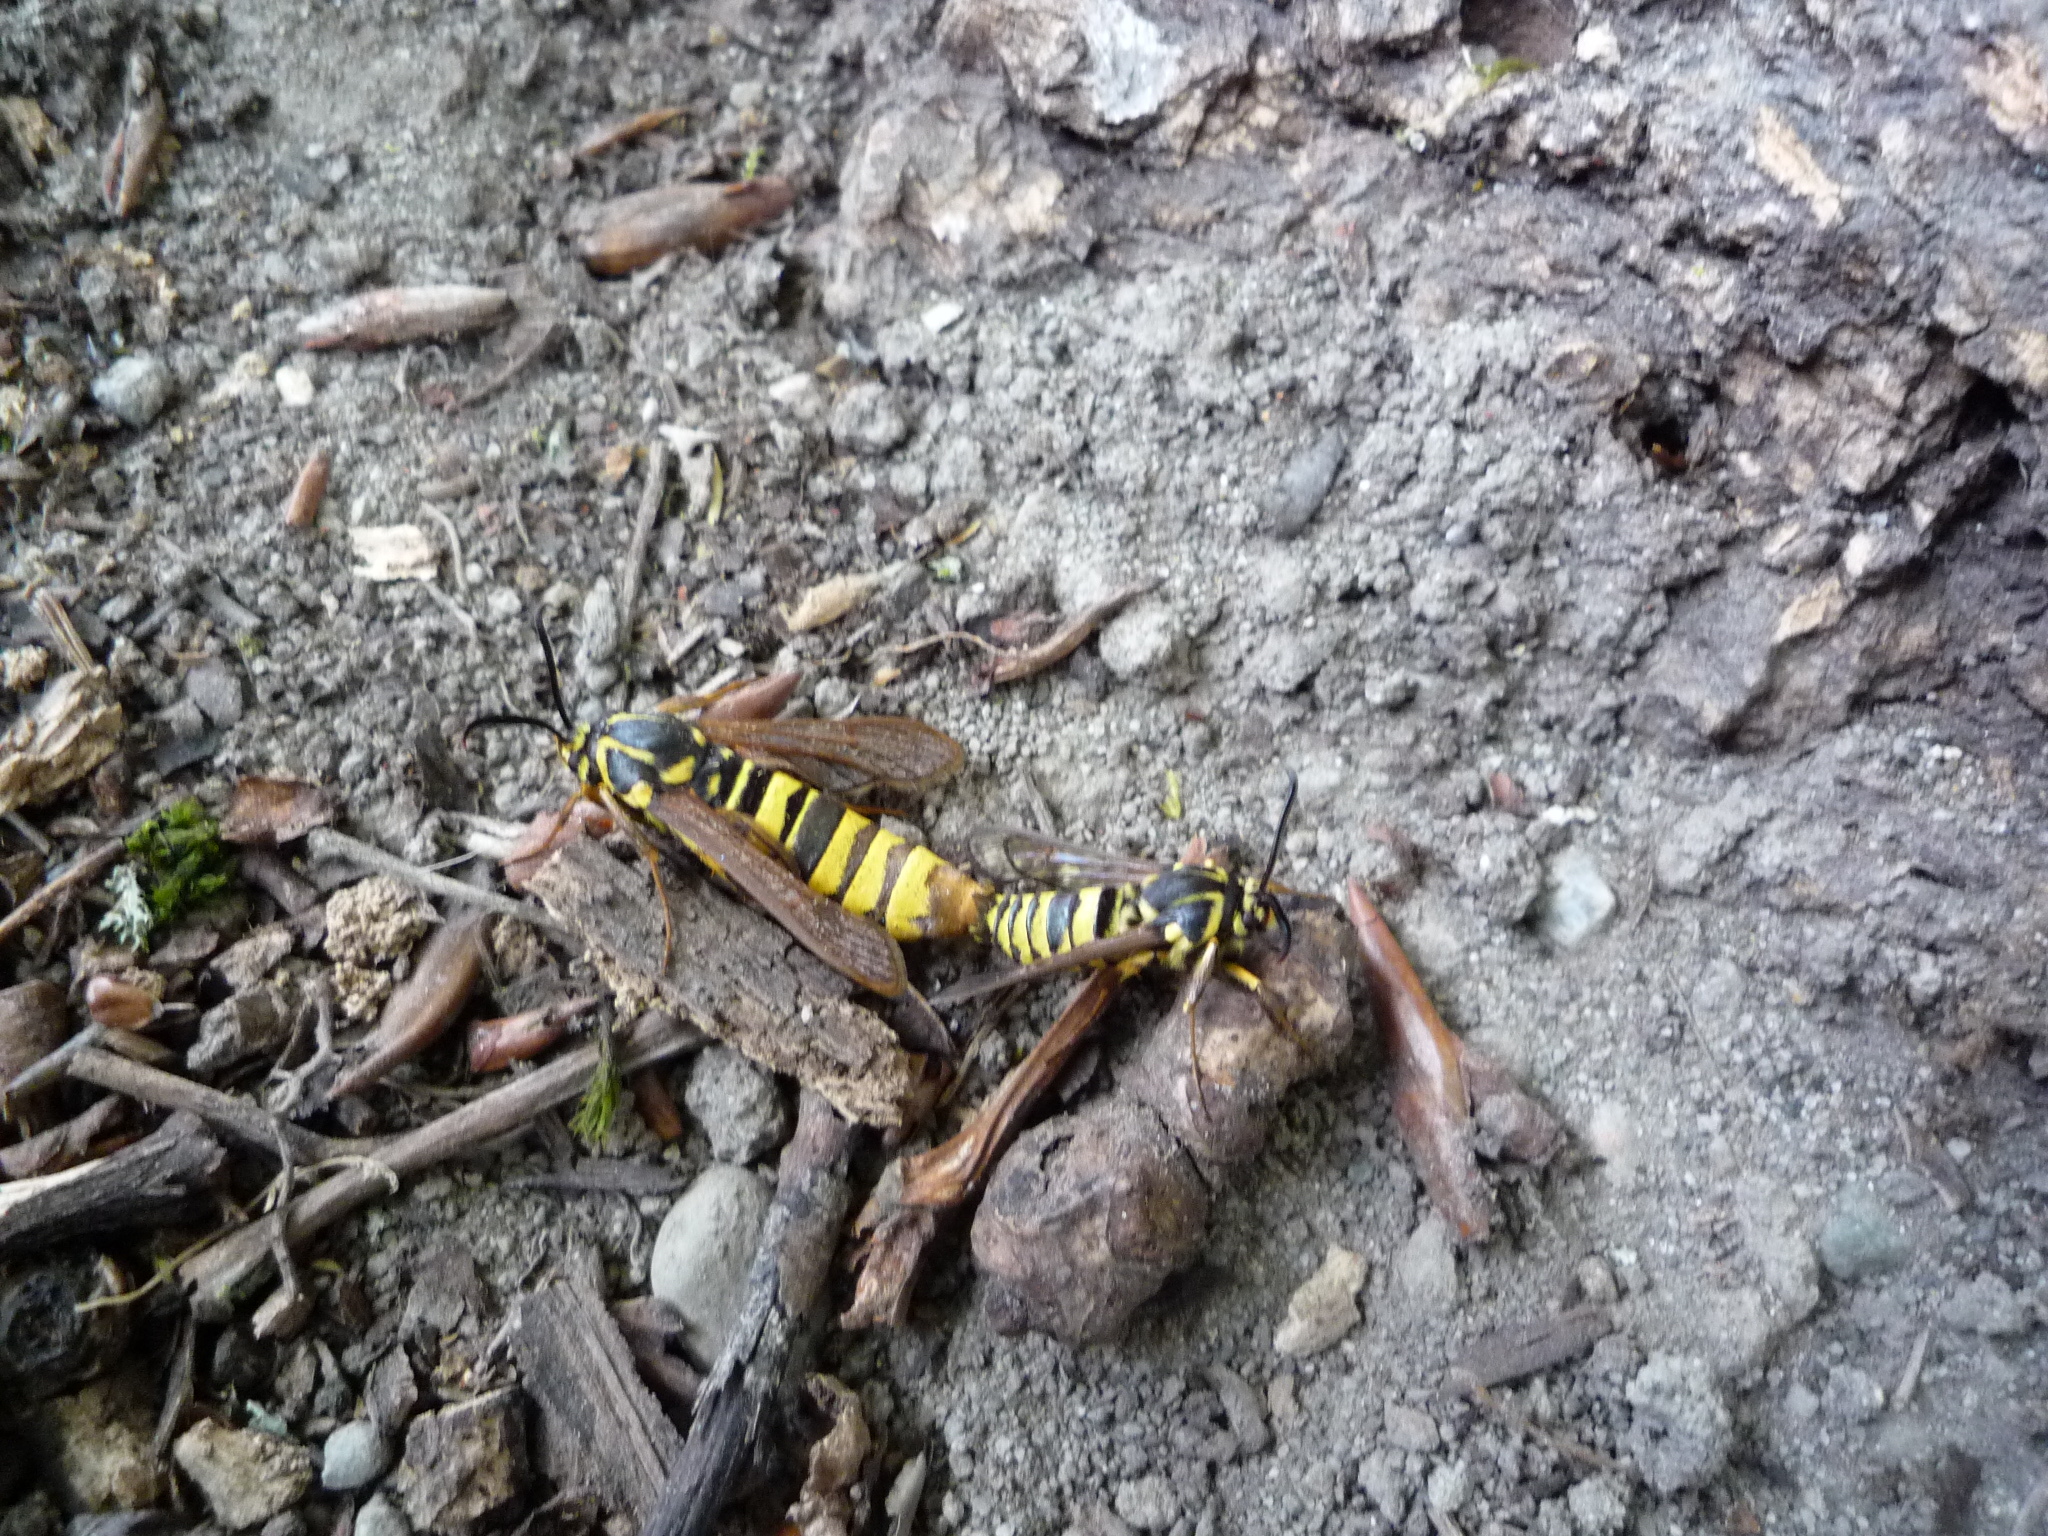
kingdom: Animalia
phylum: Arthropoda
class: Insecta
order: Lepidoptera
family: Sesiidae
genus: Sesia
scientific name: Sesia tibiale
